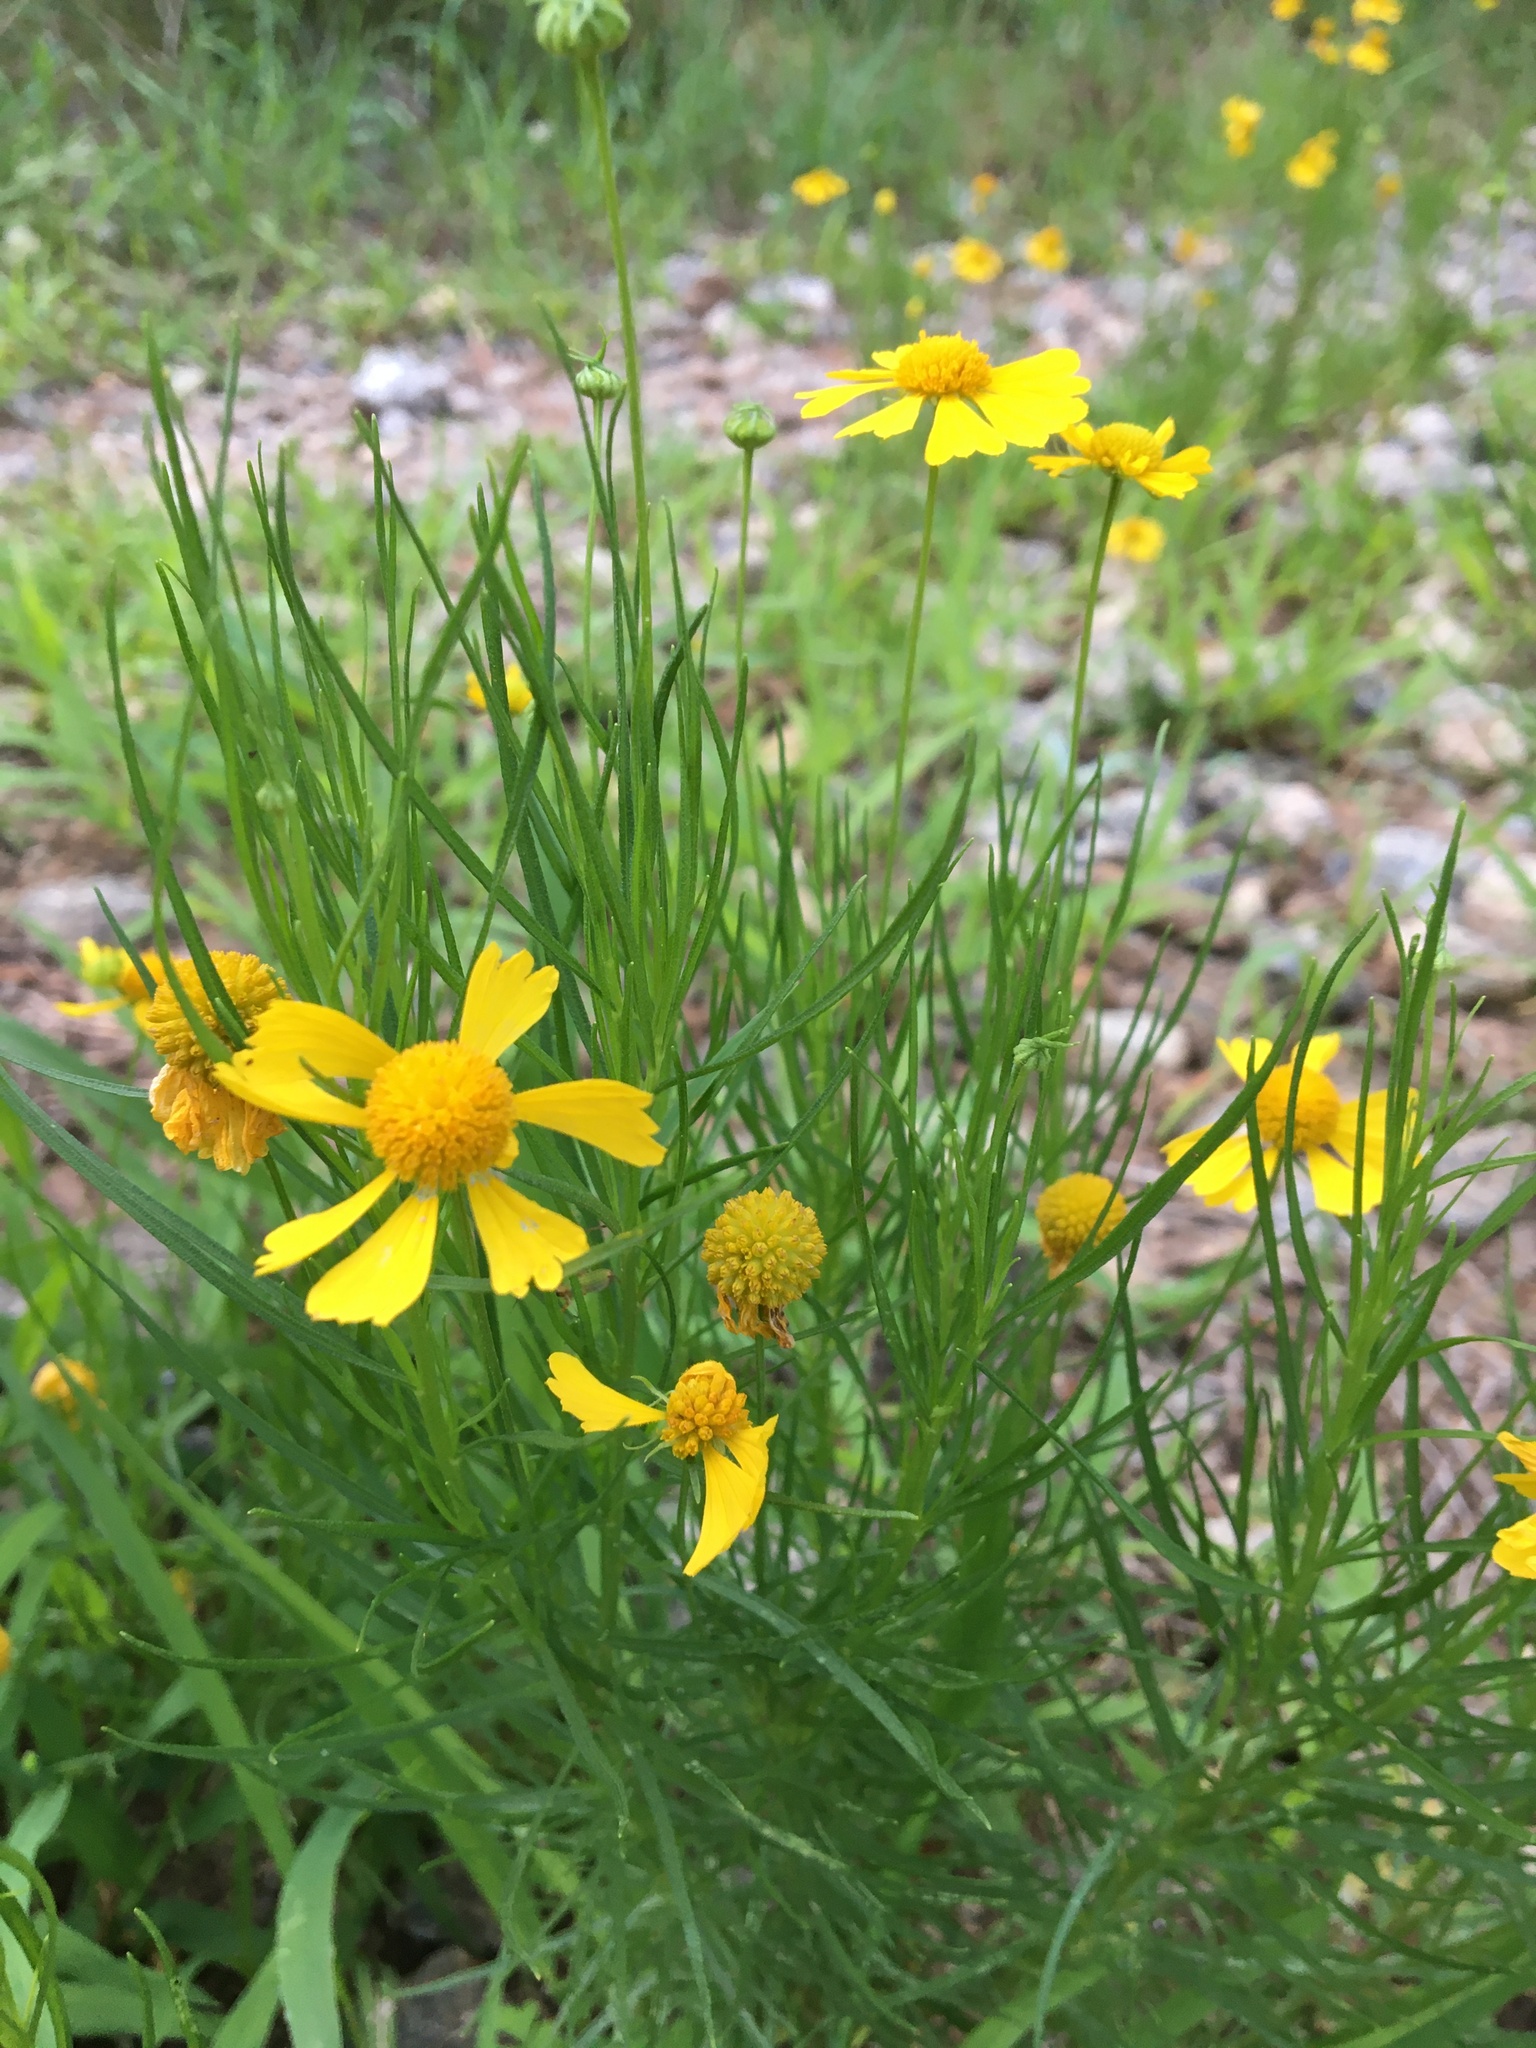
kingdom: Plantae
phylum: Tracheophyta
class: Magnoliopsida
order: Asterales
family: Asteraceae
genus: Helenium
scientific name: Helenium amarum
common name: Bitter sneezeweed
